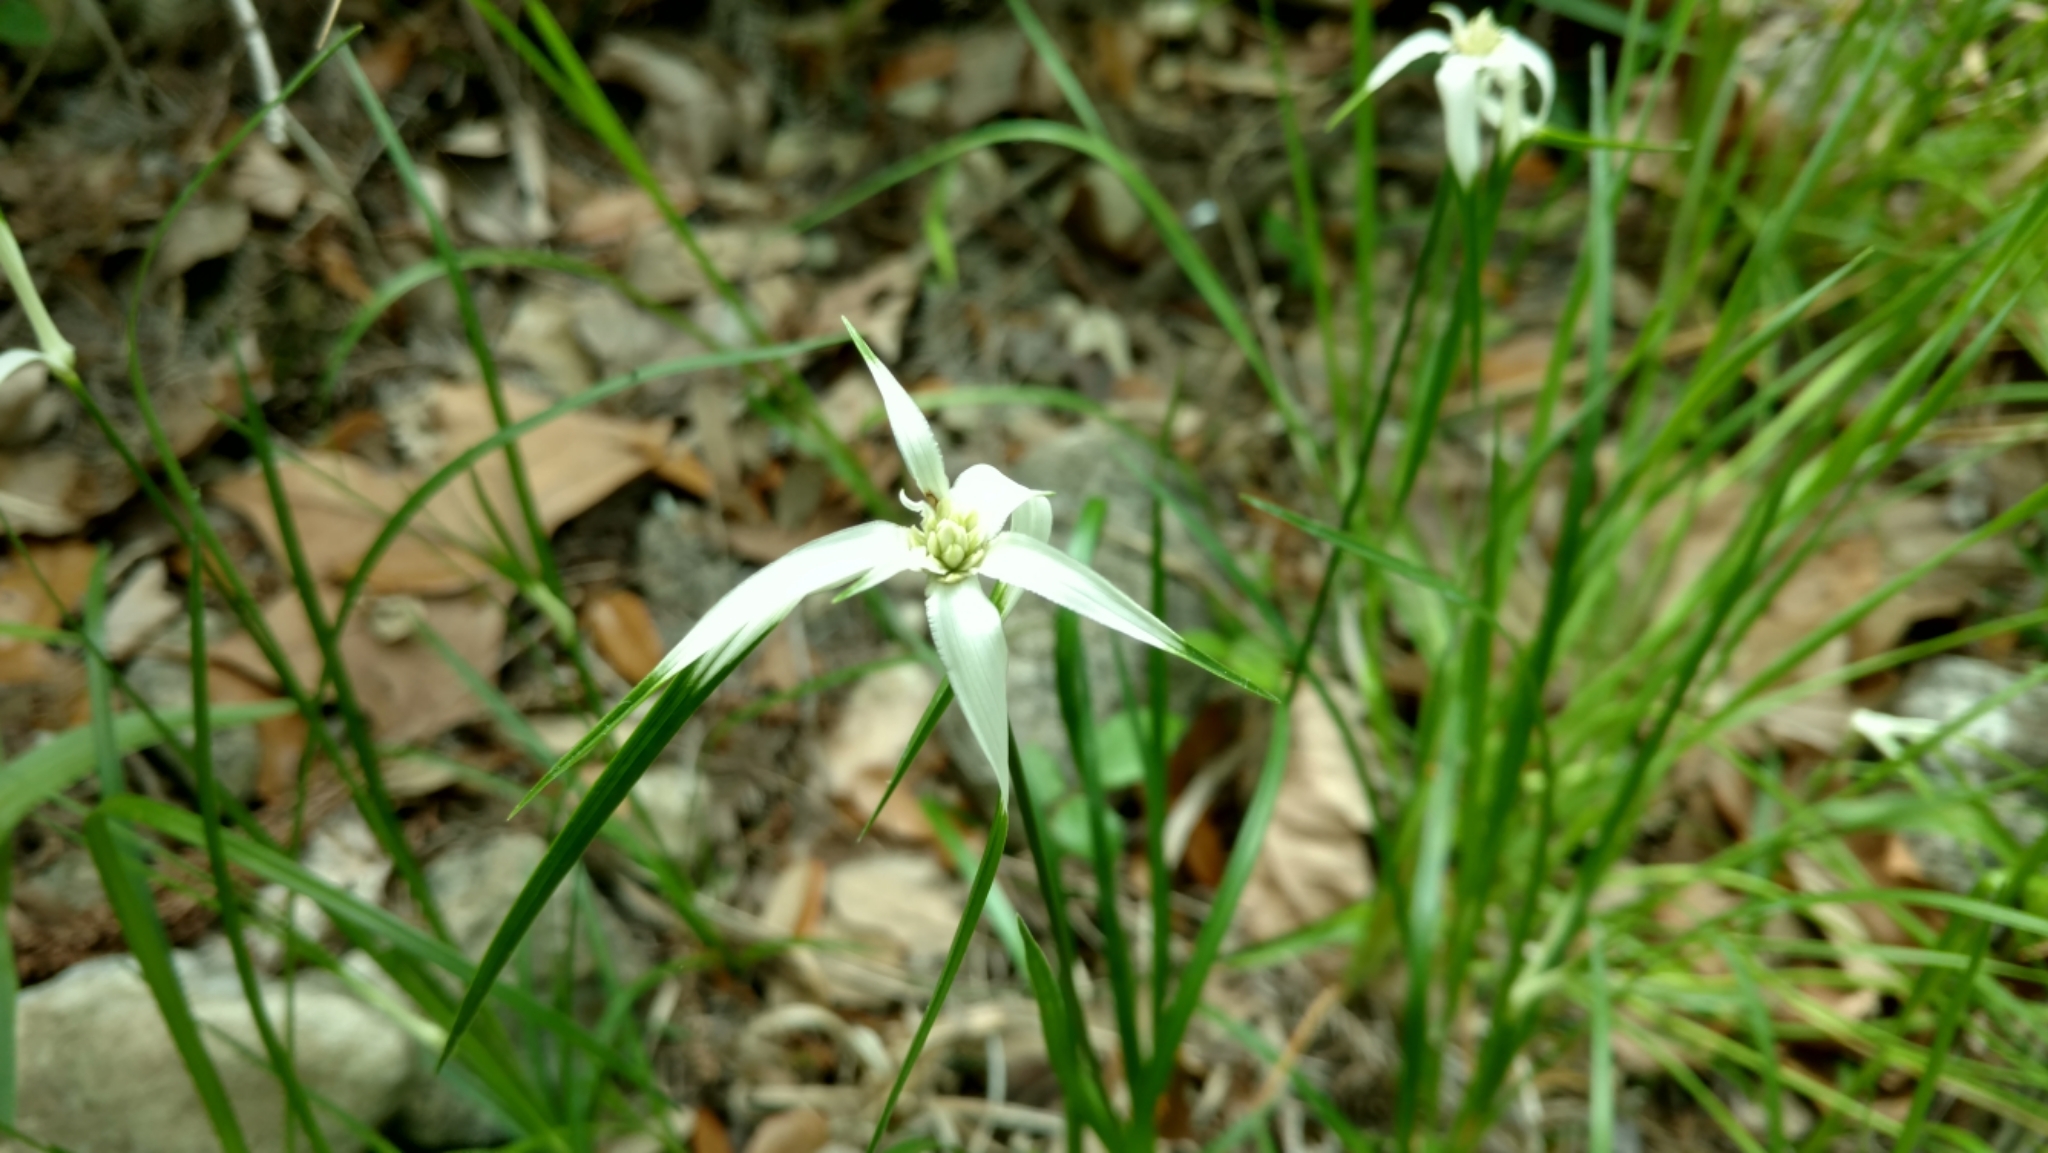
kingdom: Plantae
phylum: Tracheophyta
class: Liliopsida
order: Poales
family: Cyperaceae
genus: Rhynchospora
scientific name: Rhynchospora colorata
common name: Star sedge
